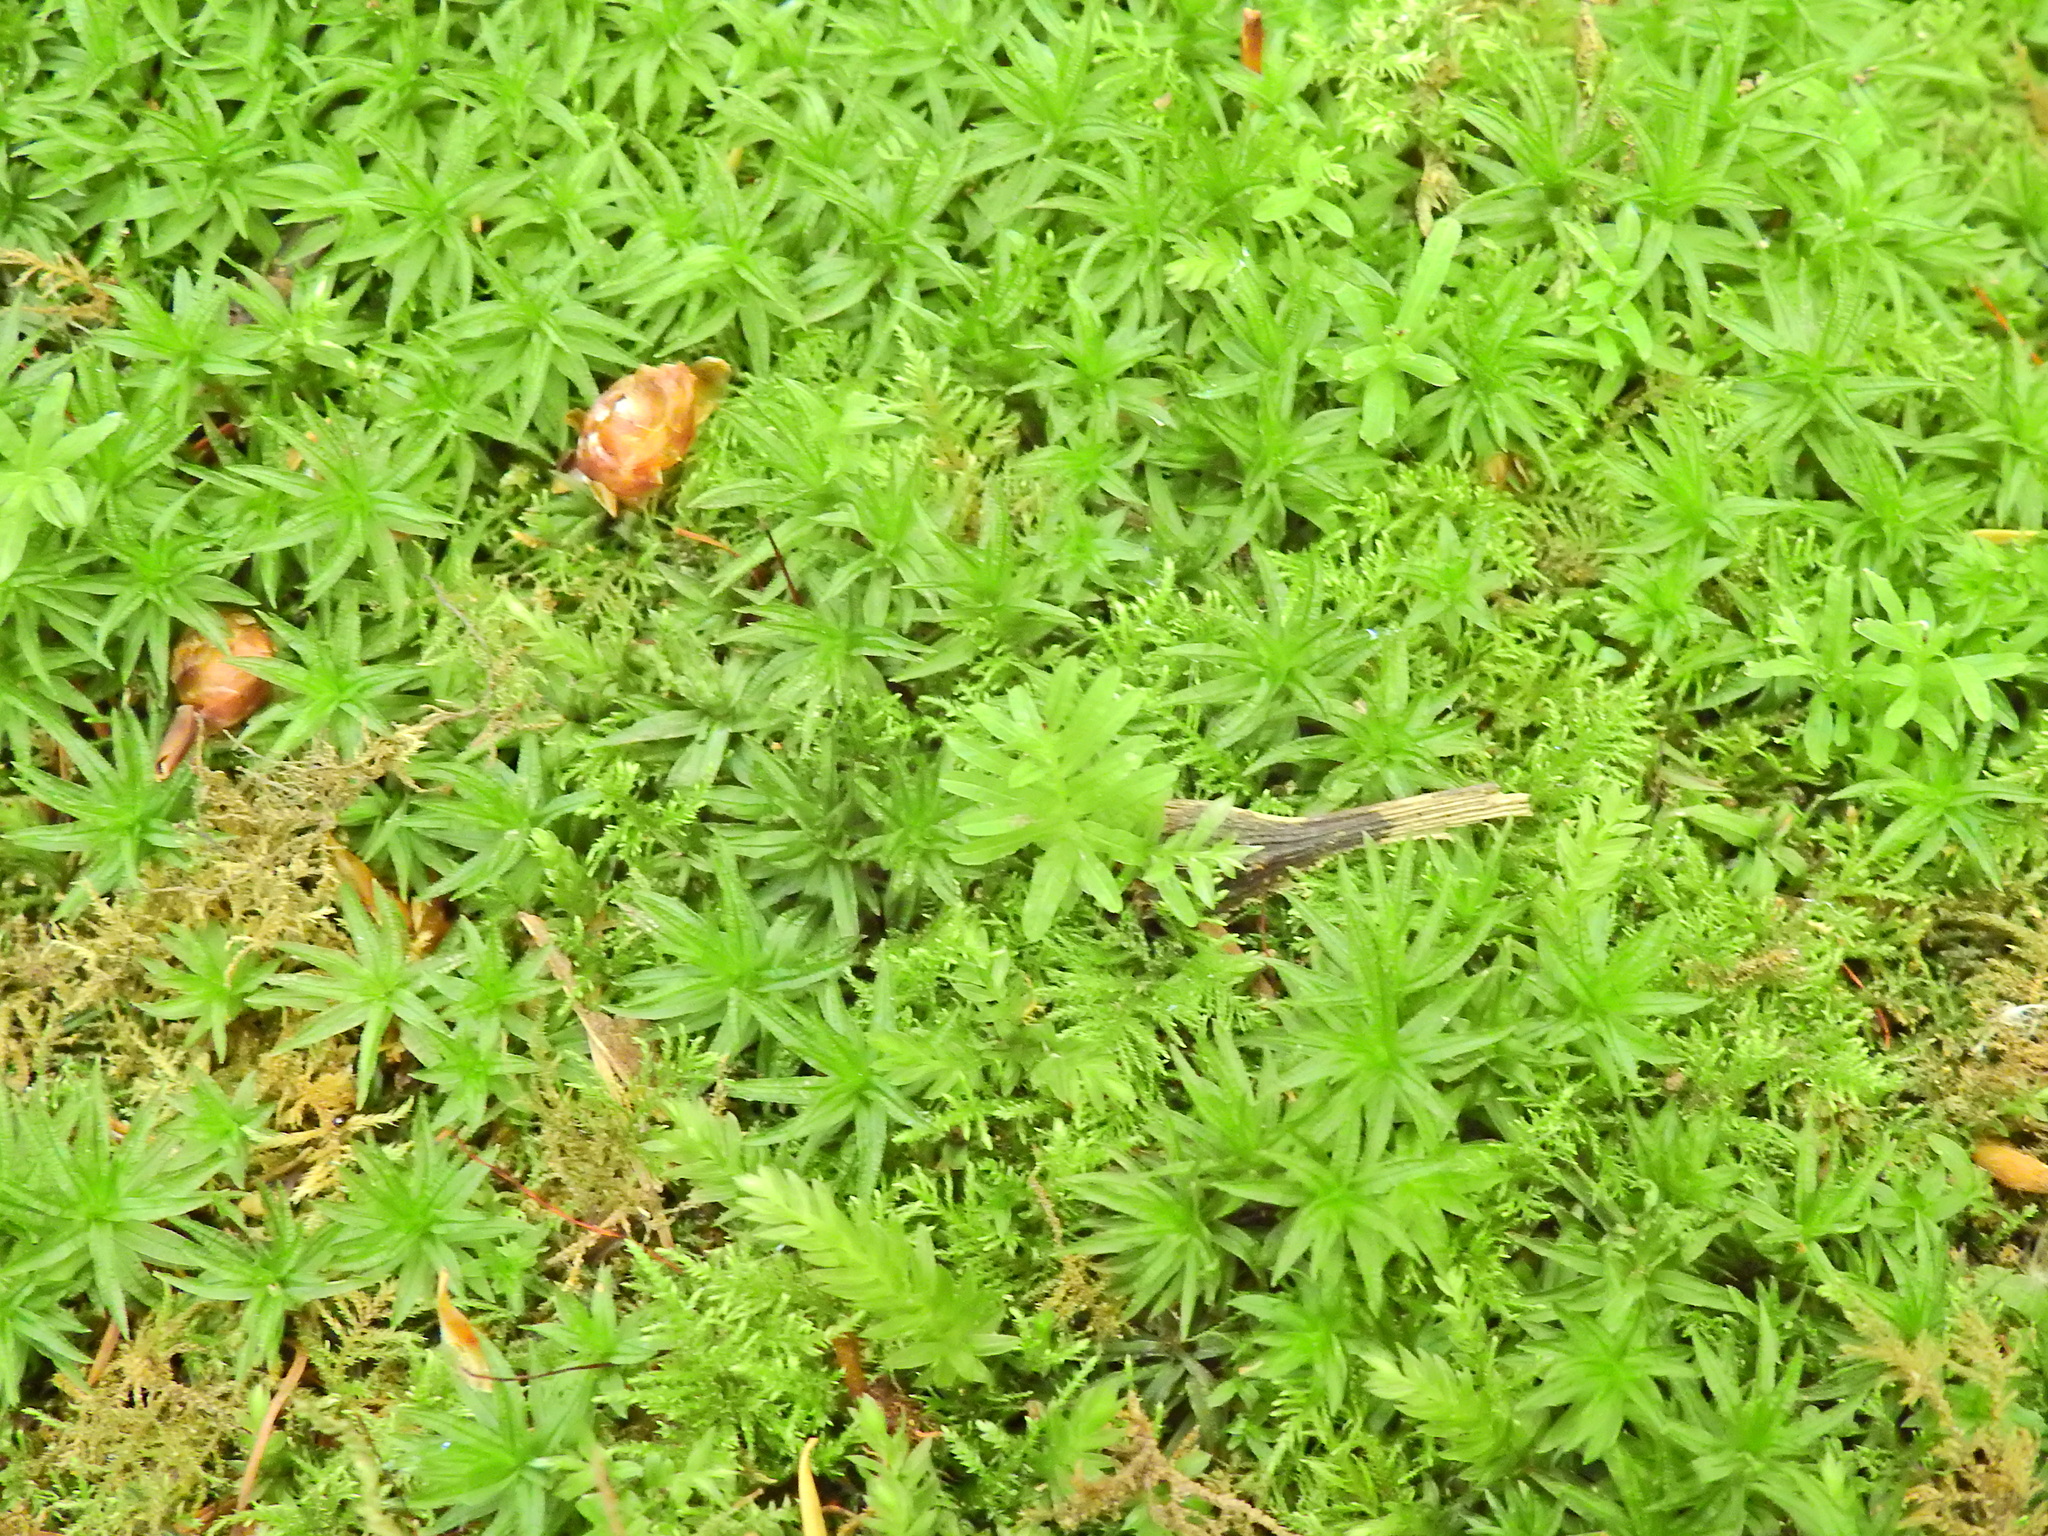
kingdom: Plantae
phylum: Bryophyta
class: Bryopsida
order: Bryales
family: Mniaceae
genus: Plagiomnium
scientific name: Plagiomnium undulatum
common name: Hart's-tongue thyme-moss
